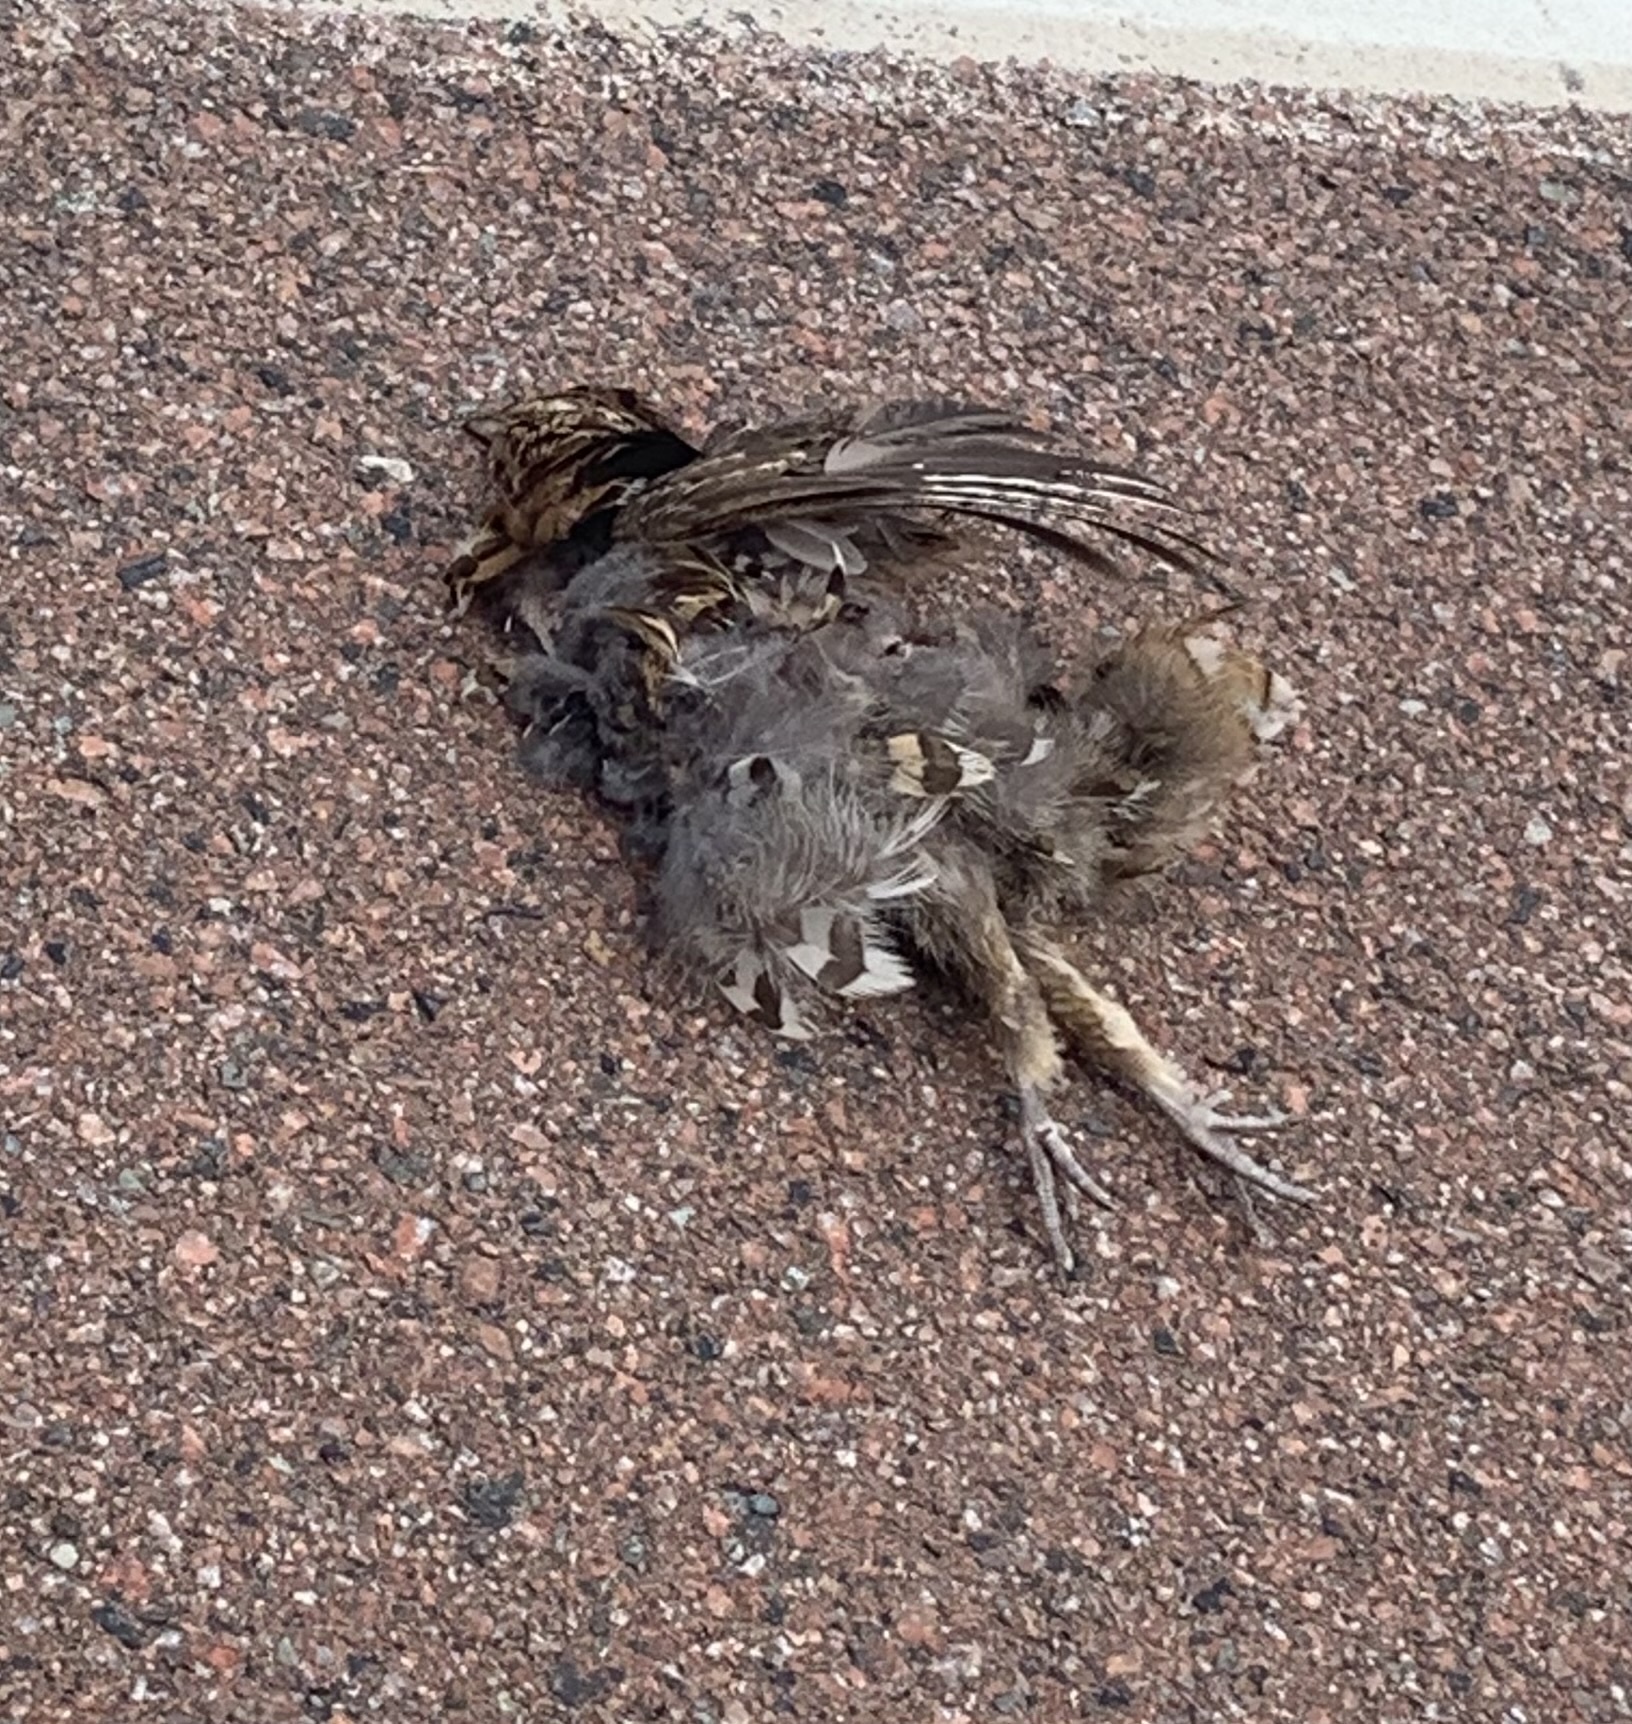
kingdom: Animalia
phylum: Chordata
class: Aves
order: Galliformes
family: Phasianidae
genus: Bonasa
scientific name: Bonasa umbellus
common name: Ruffed grouse
